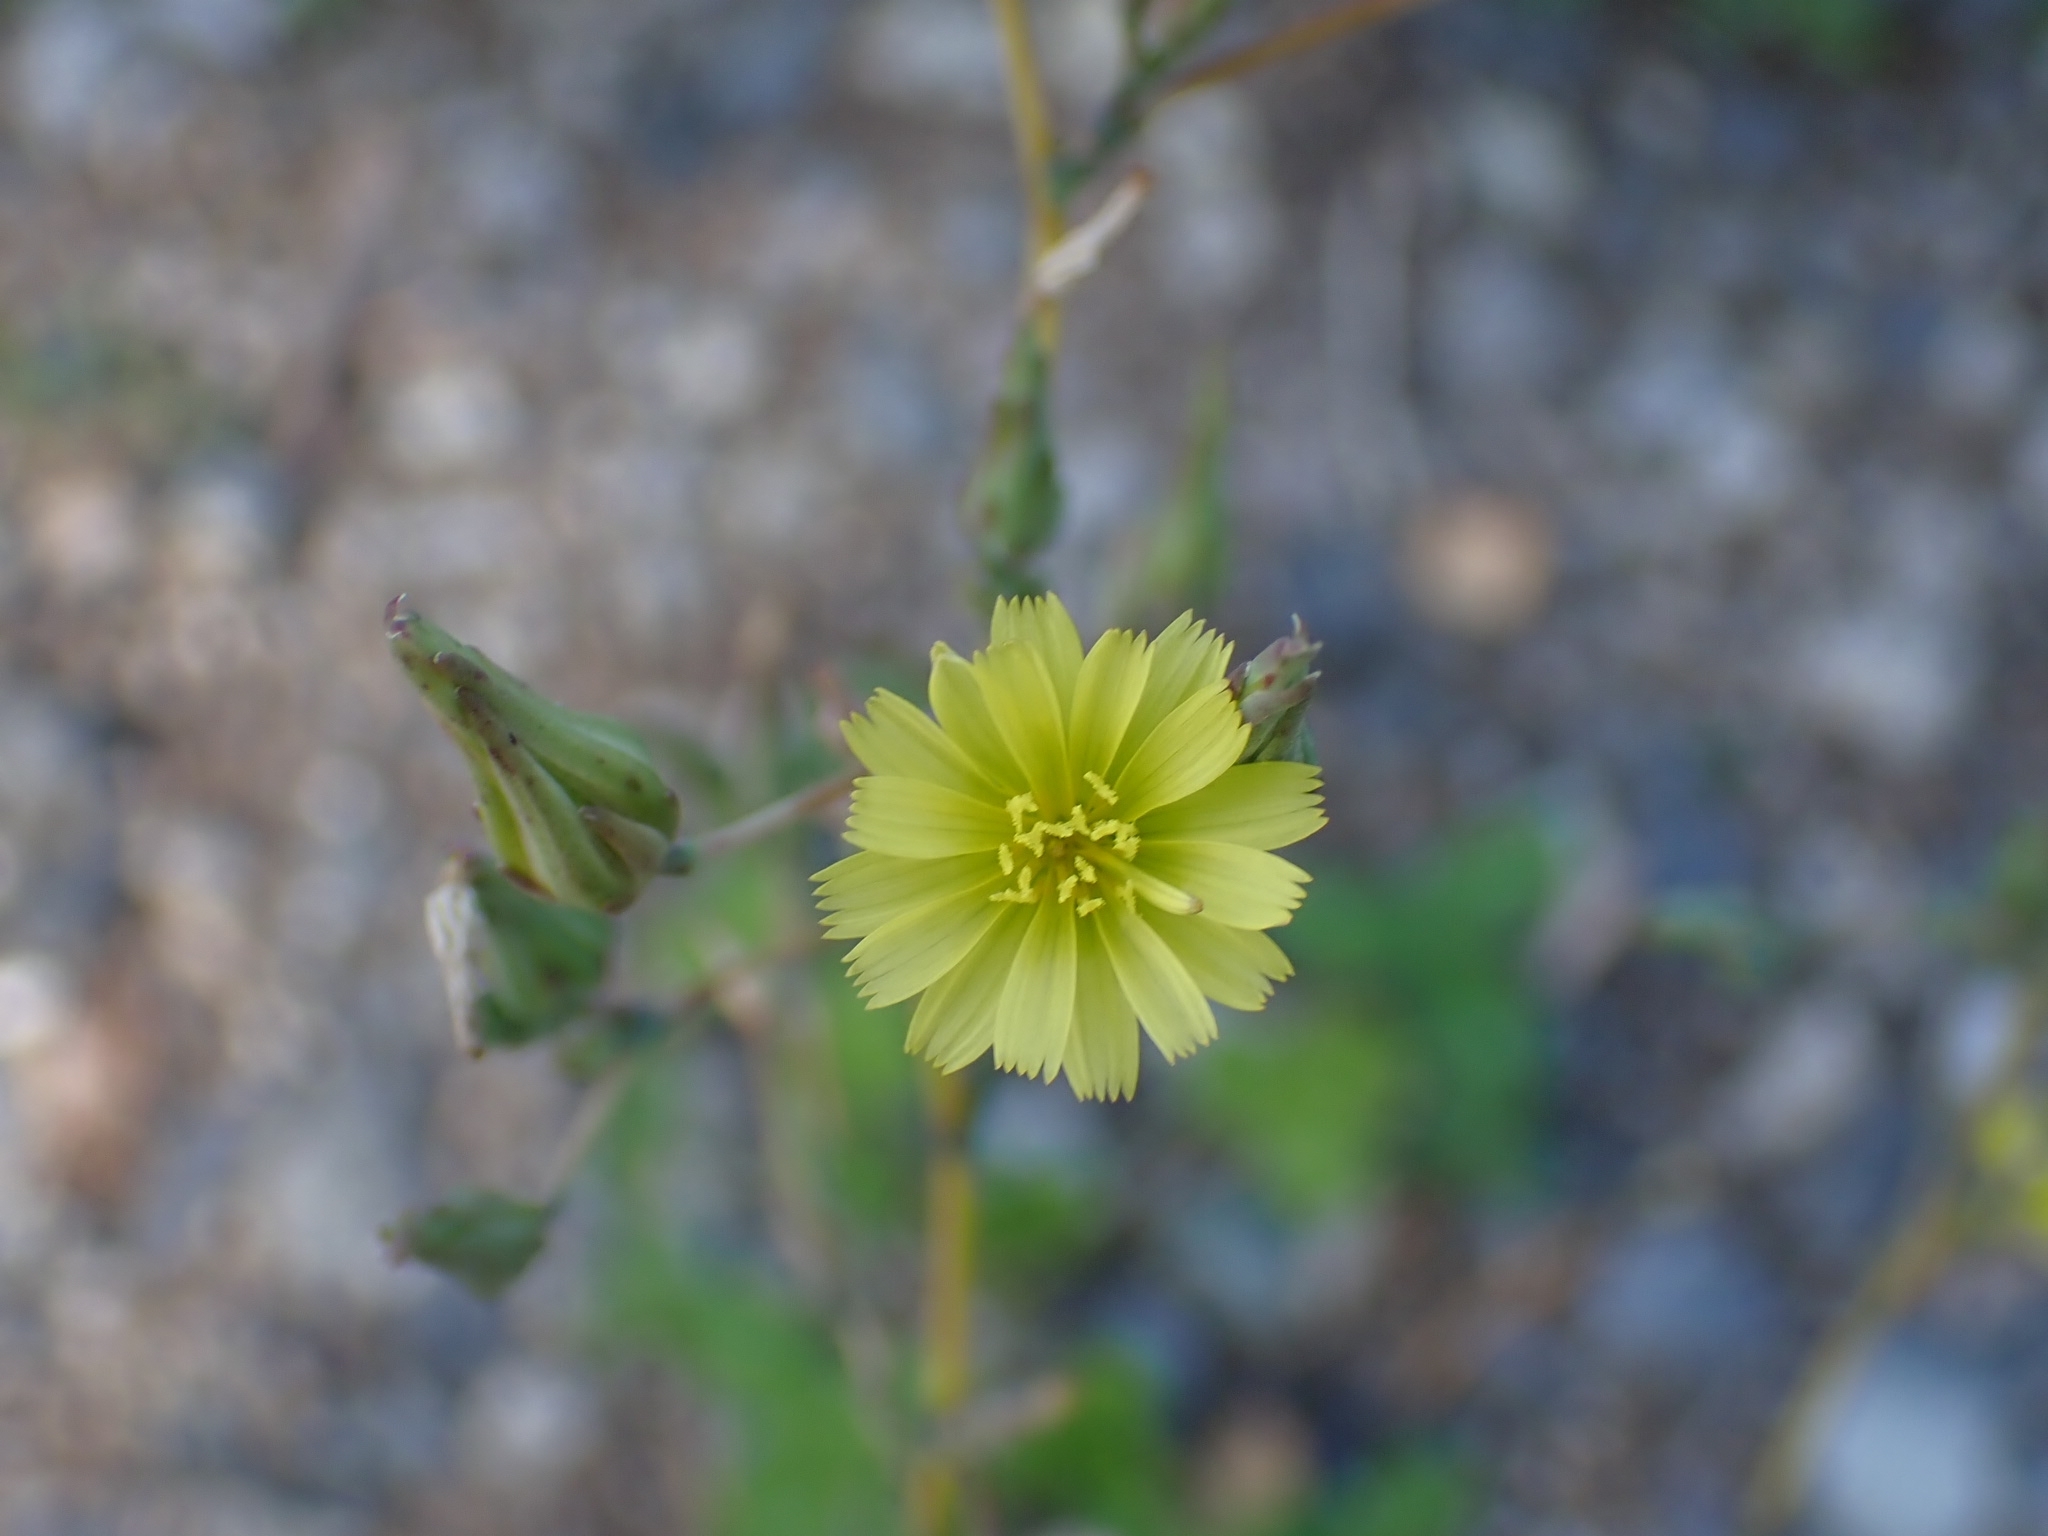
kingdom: Plantae
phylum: Tracheophyta
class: Magnoliopsida
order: Asterales
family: Asteraceae
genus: Lactuca
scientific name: Lactuca serriola
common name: Prickly lettuce
